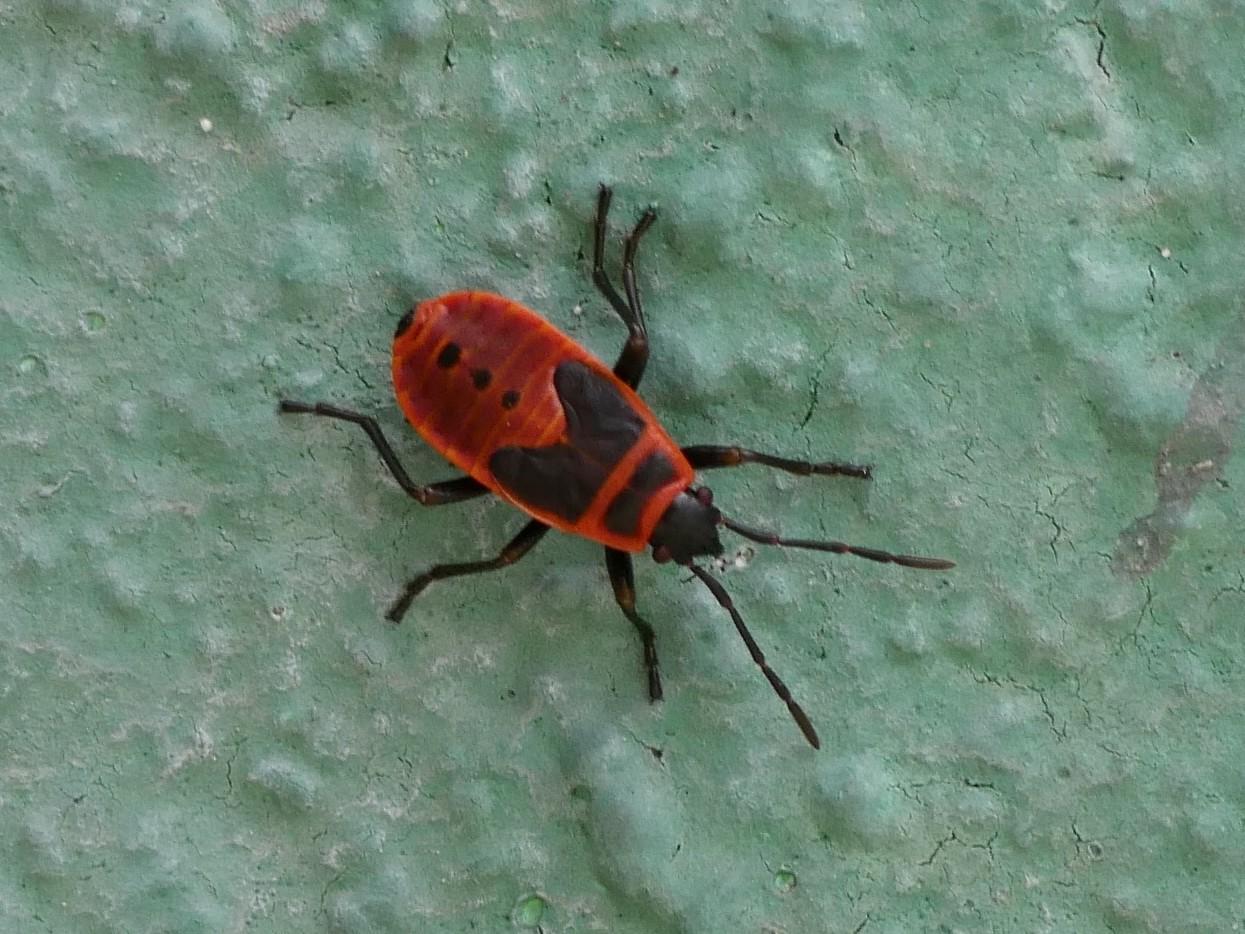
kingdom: Animalia
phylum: Arthropoda
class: Insecta
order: Hemiptera
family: Pyrrhocoridae
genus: Pyrrhocoris
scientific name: Pyrrhocoris apterus
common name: Firebug
